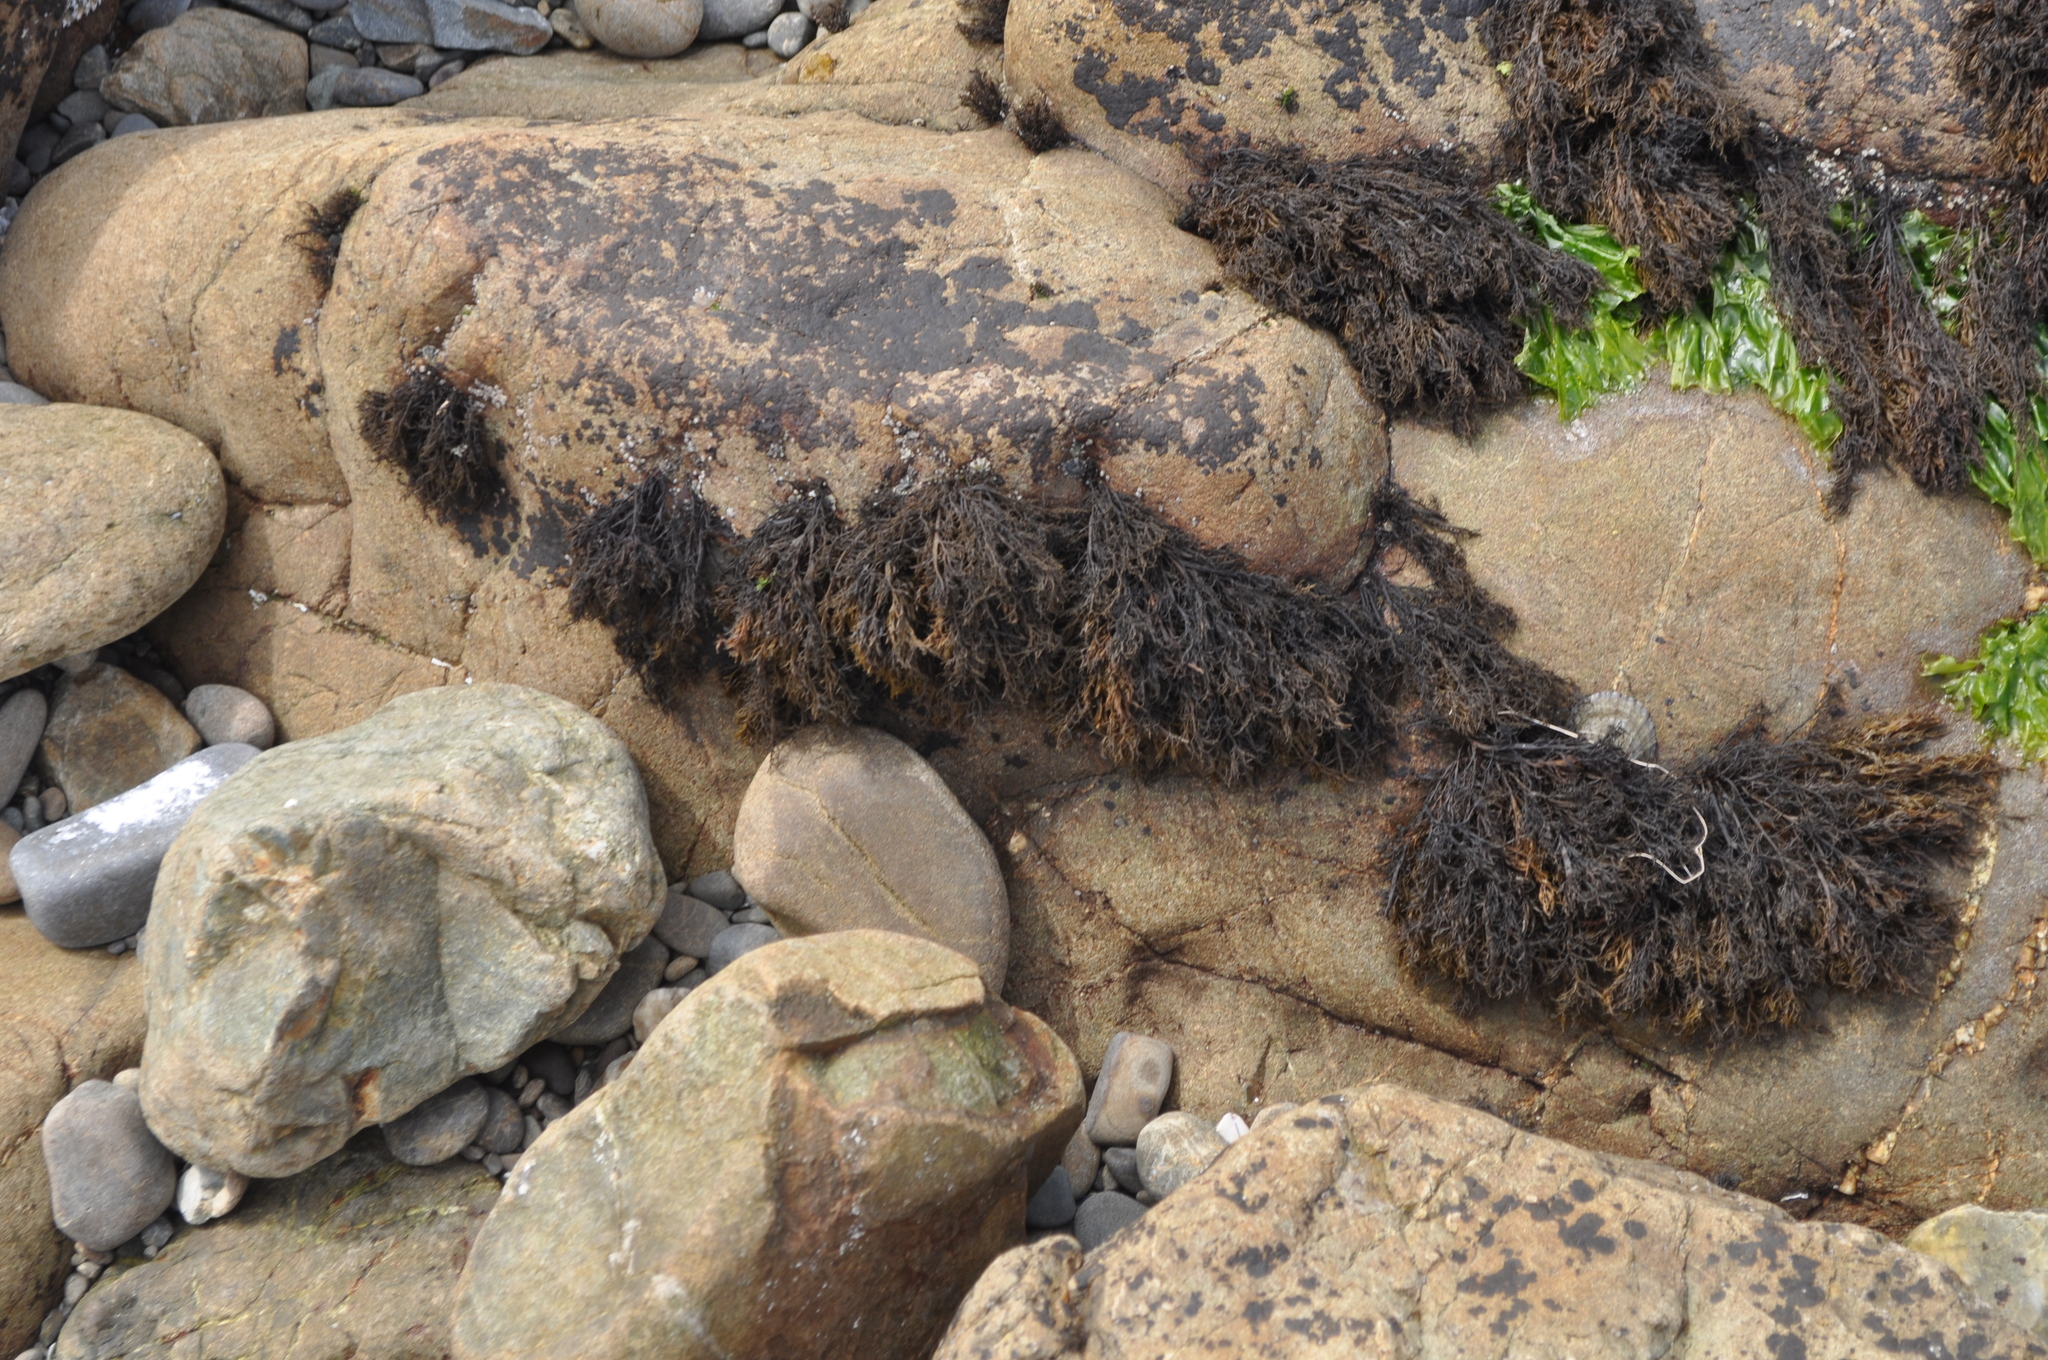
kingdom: Chromista
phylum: Ochrophyta
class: Phaeophyceae
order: Scytothamnales
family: Scytothamnaceae
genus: Scytothamnus
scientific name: Scytothamnus australis
